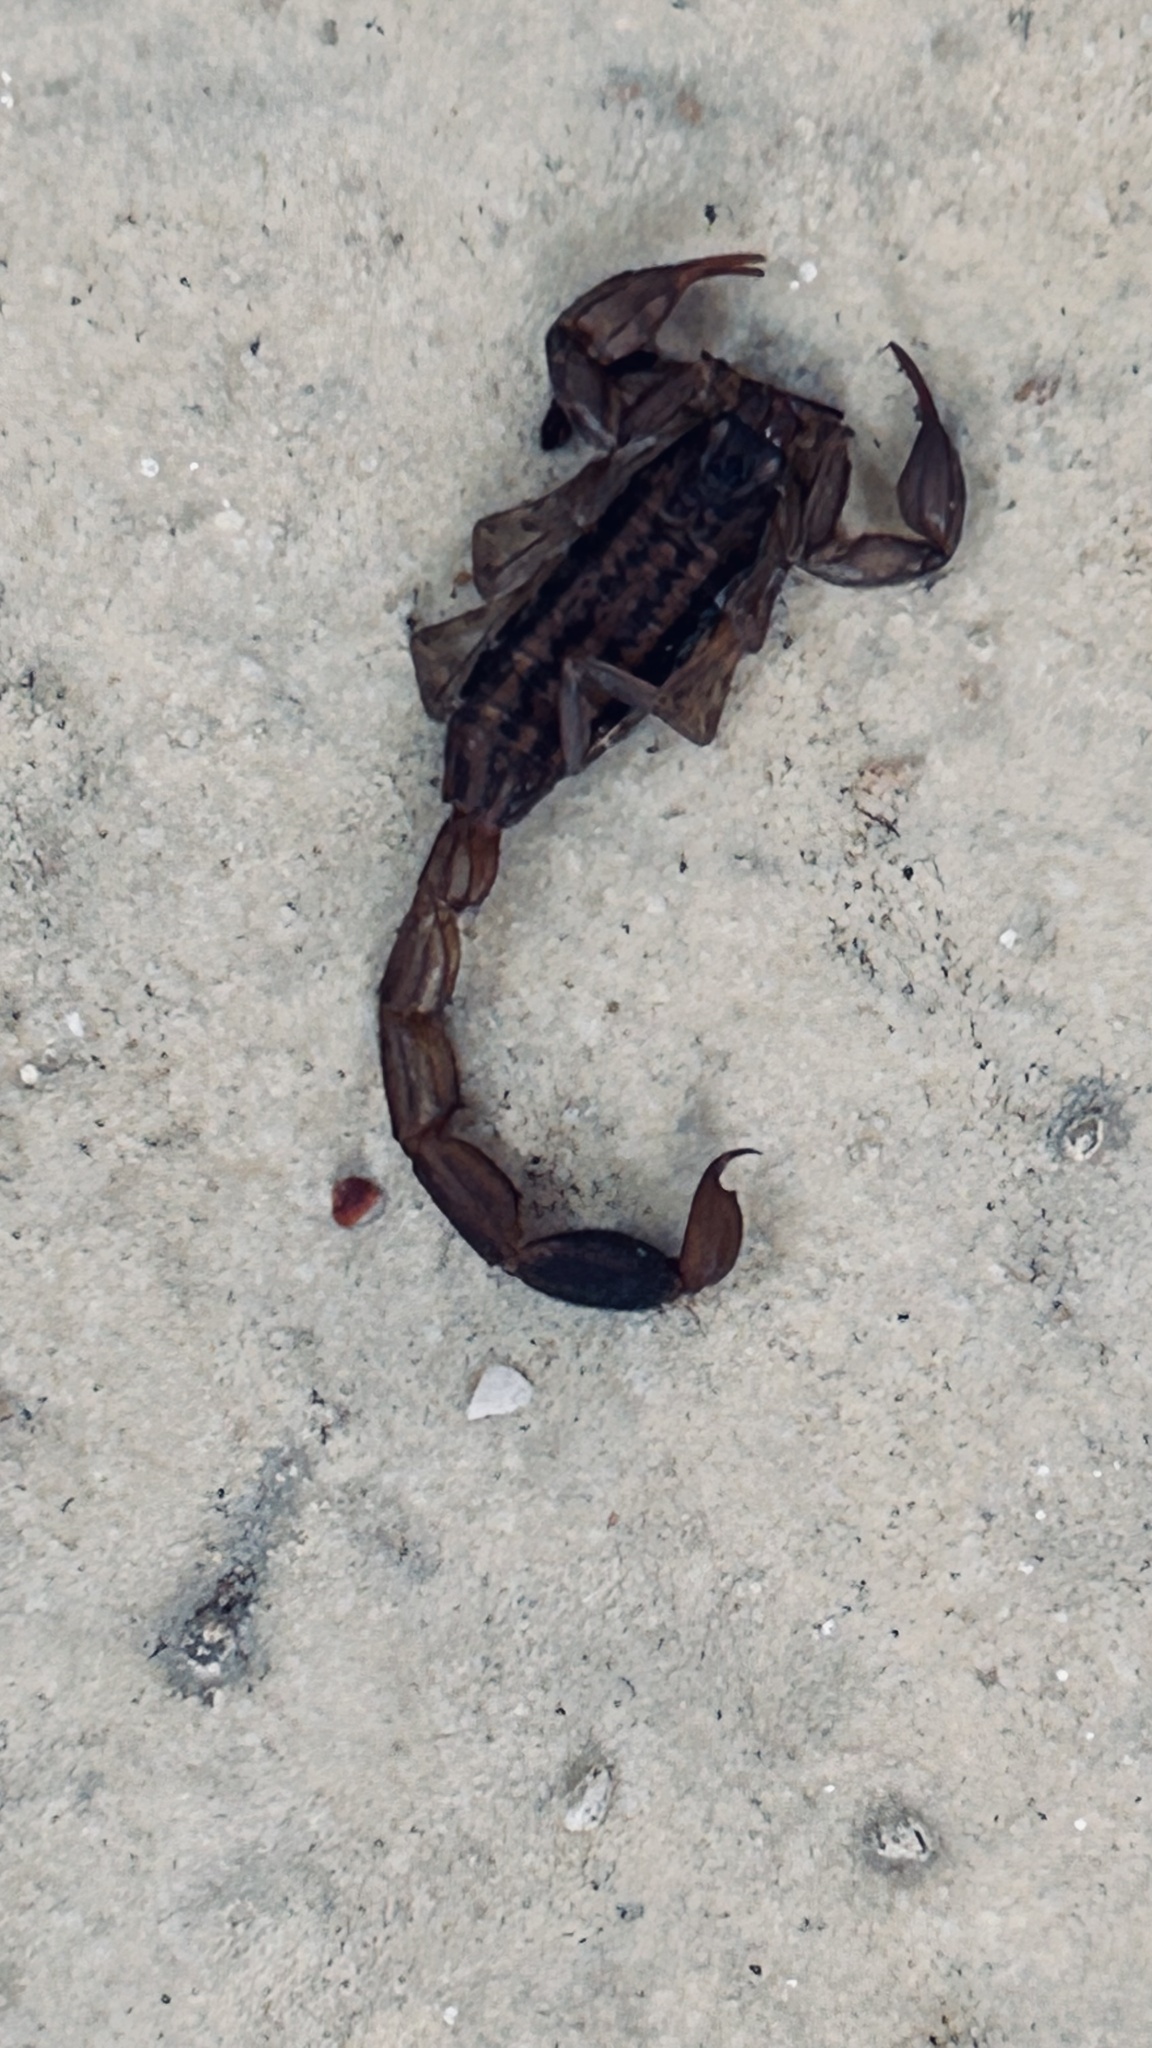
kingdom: Animalia
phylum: Arthropoda
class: Arachnida
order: Scorpiones
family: Buthidae
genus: Uroplectes
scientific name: Uroplectes lineatus
